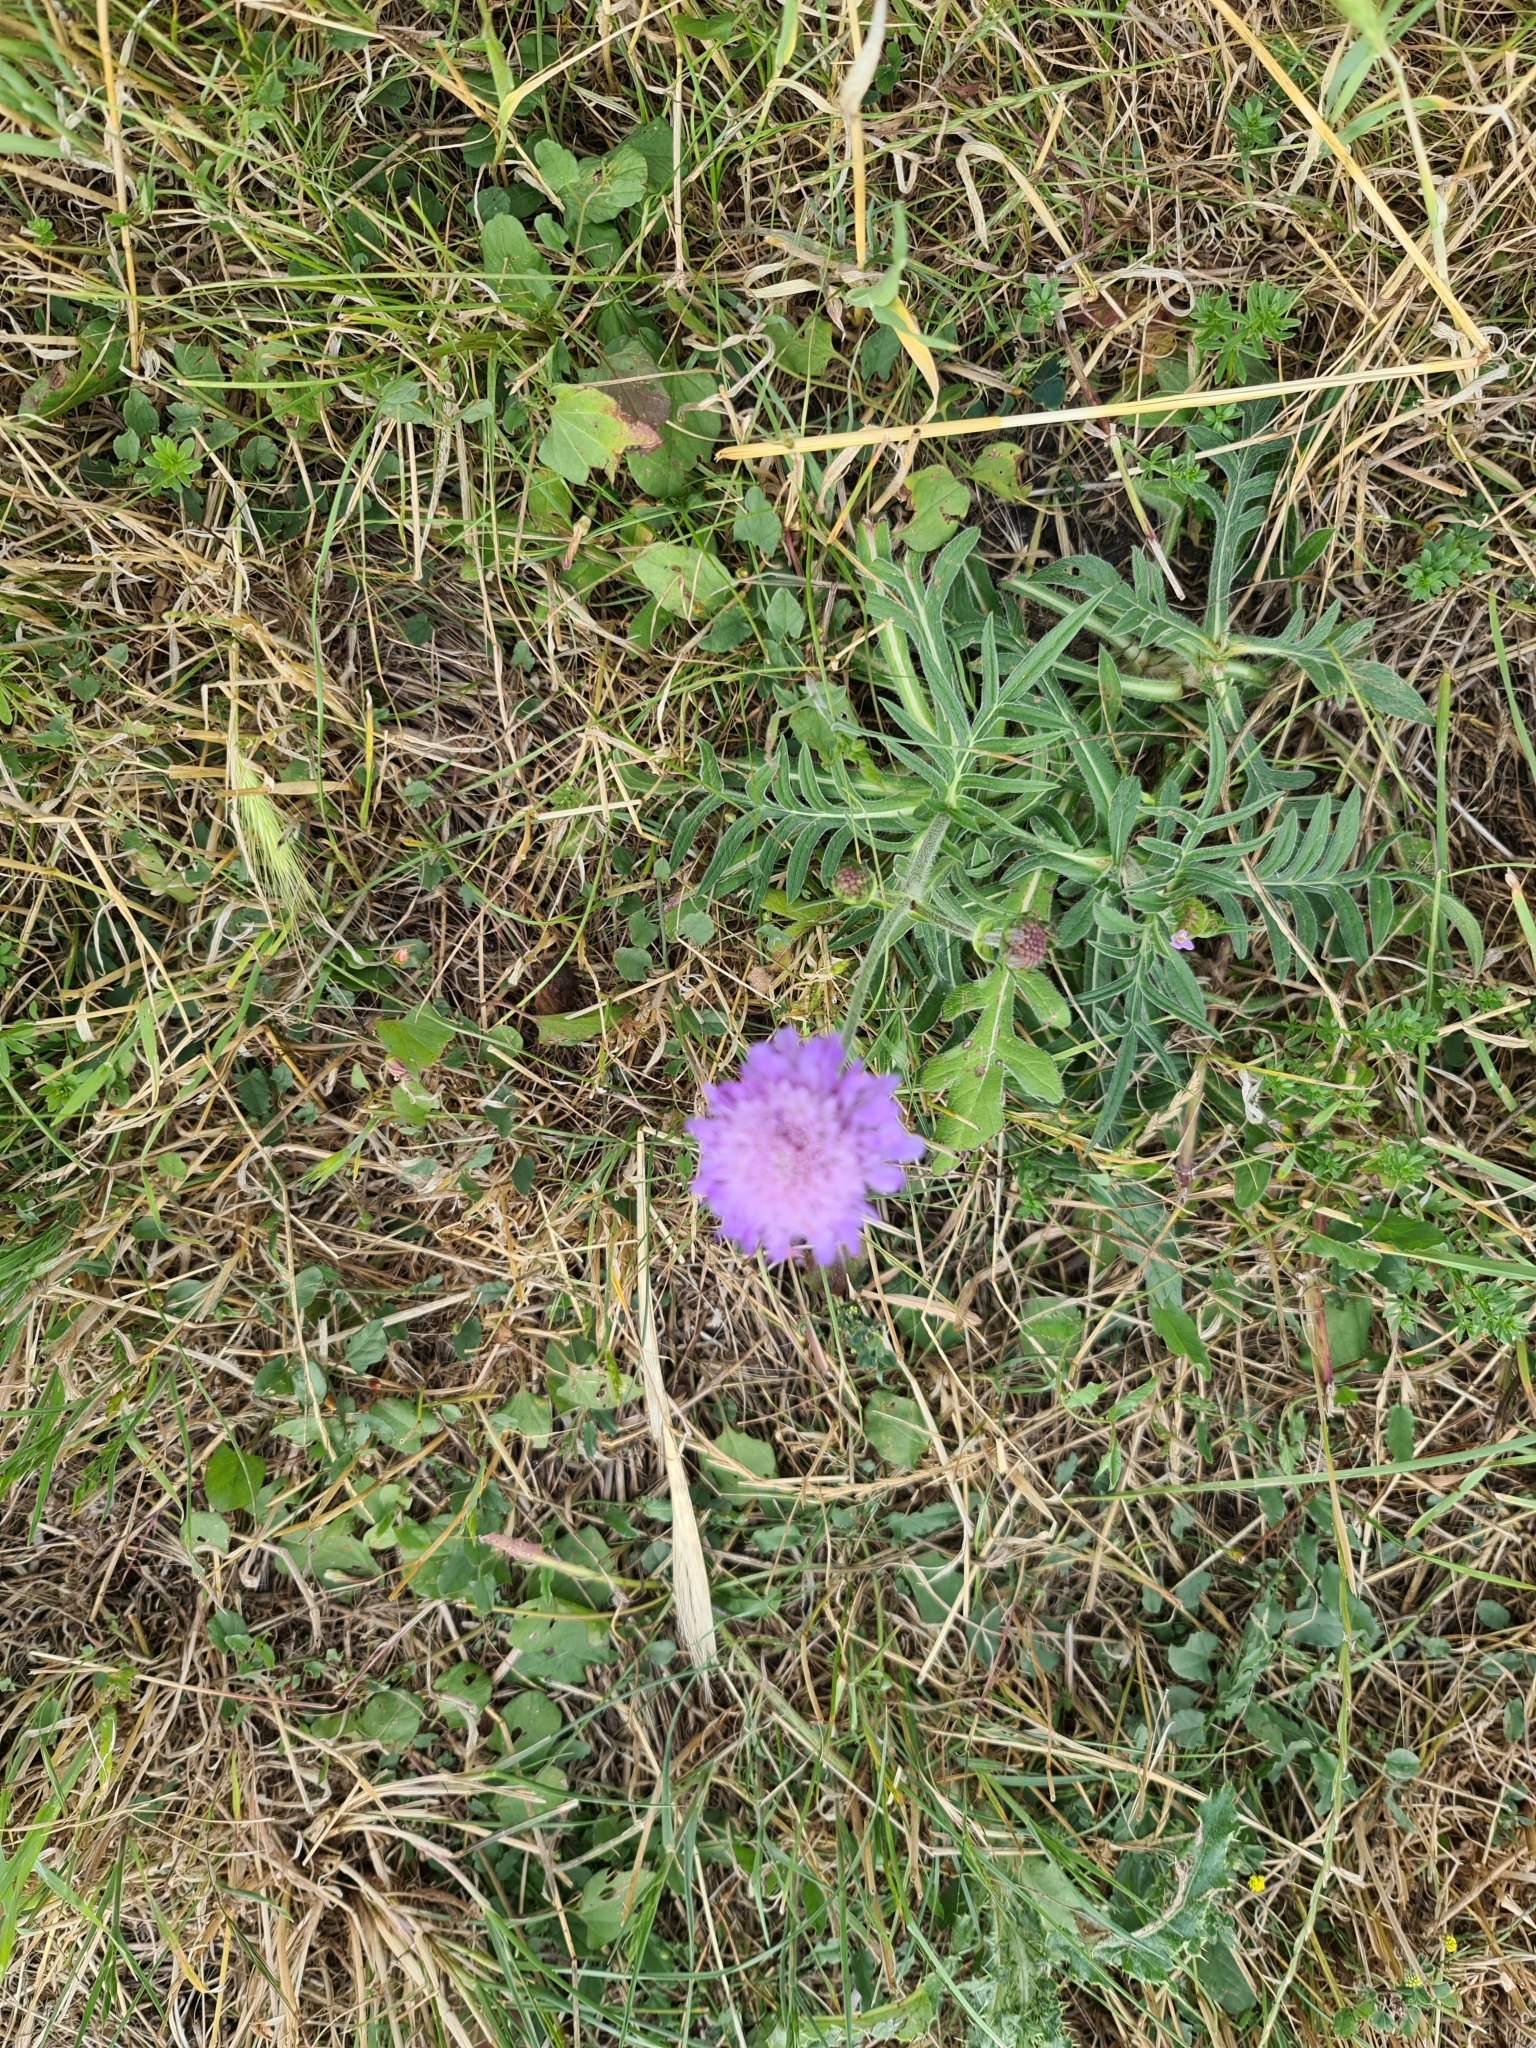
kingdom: Plantae
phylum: Tracheophyta
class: Magnoliopsida
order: Dipsacales
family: Caprifoliaceae
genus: Knautia
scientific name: Knautia arvensis
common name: Field scabiosa
